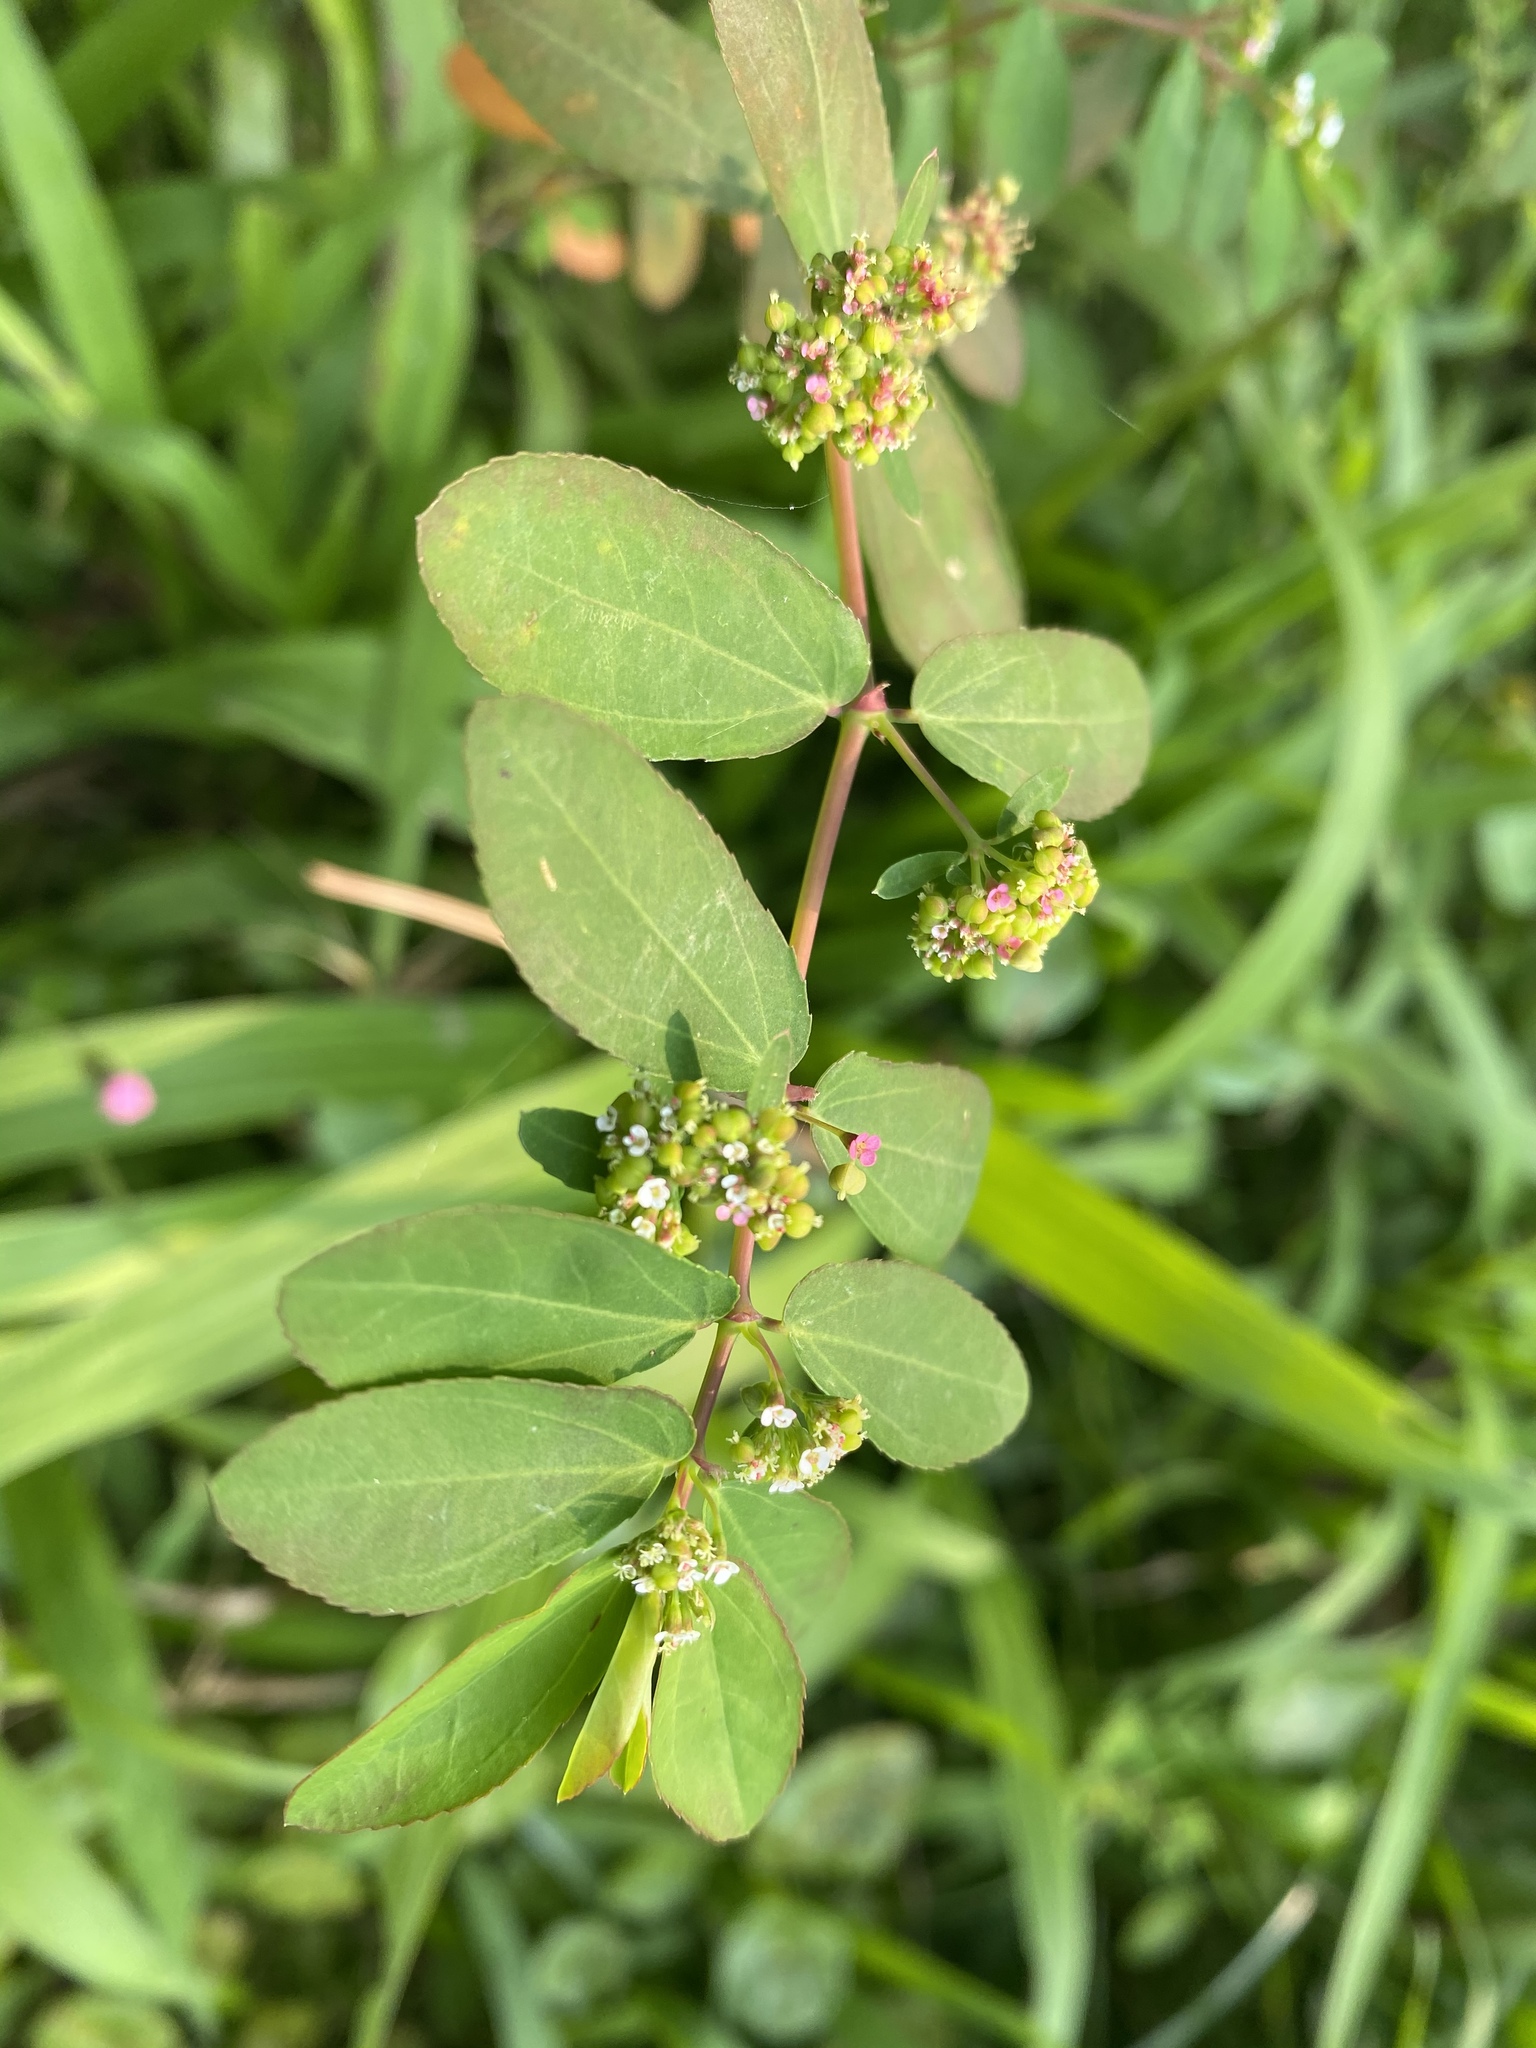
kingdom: Plantae
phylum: Tracheophyta
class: Magnoliopsida
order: Malpighiales
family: Euphorbiaceae
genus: Euphorbia
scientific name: Euphorbia hypericifolia
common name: Graceful sandmat
